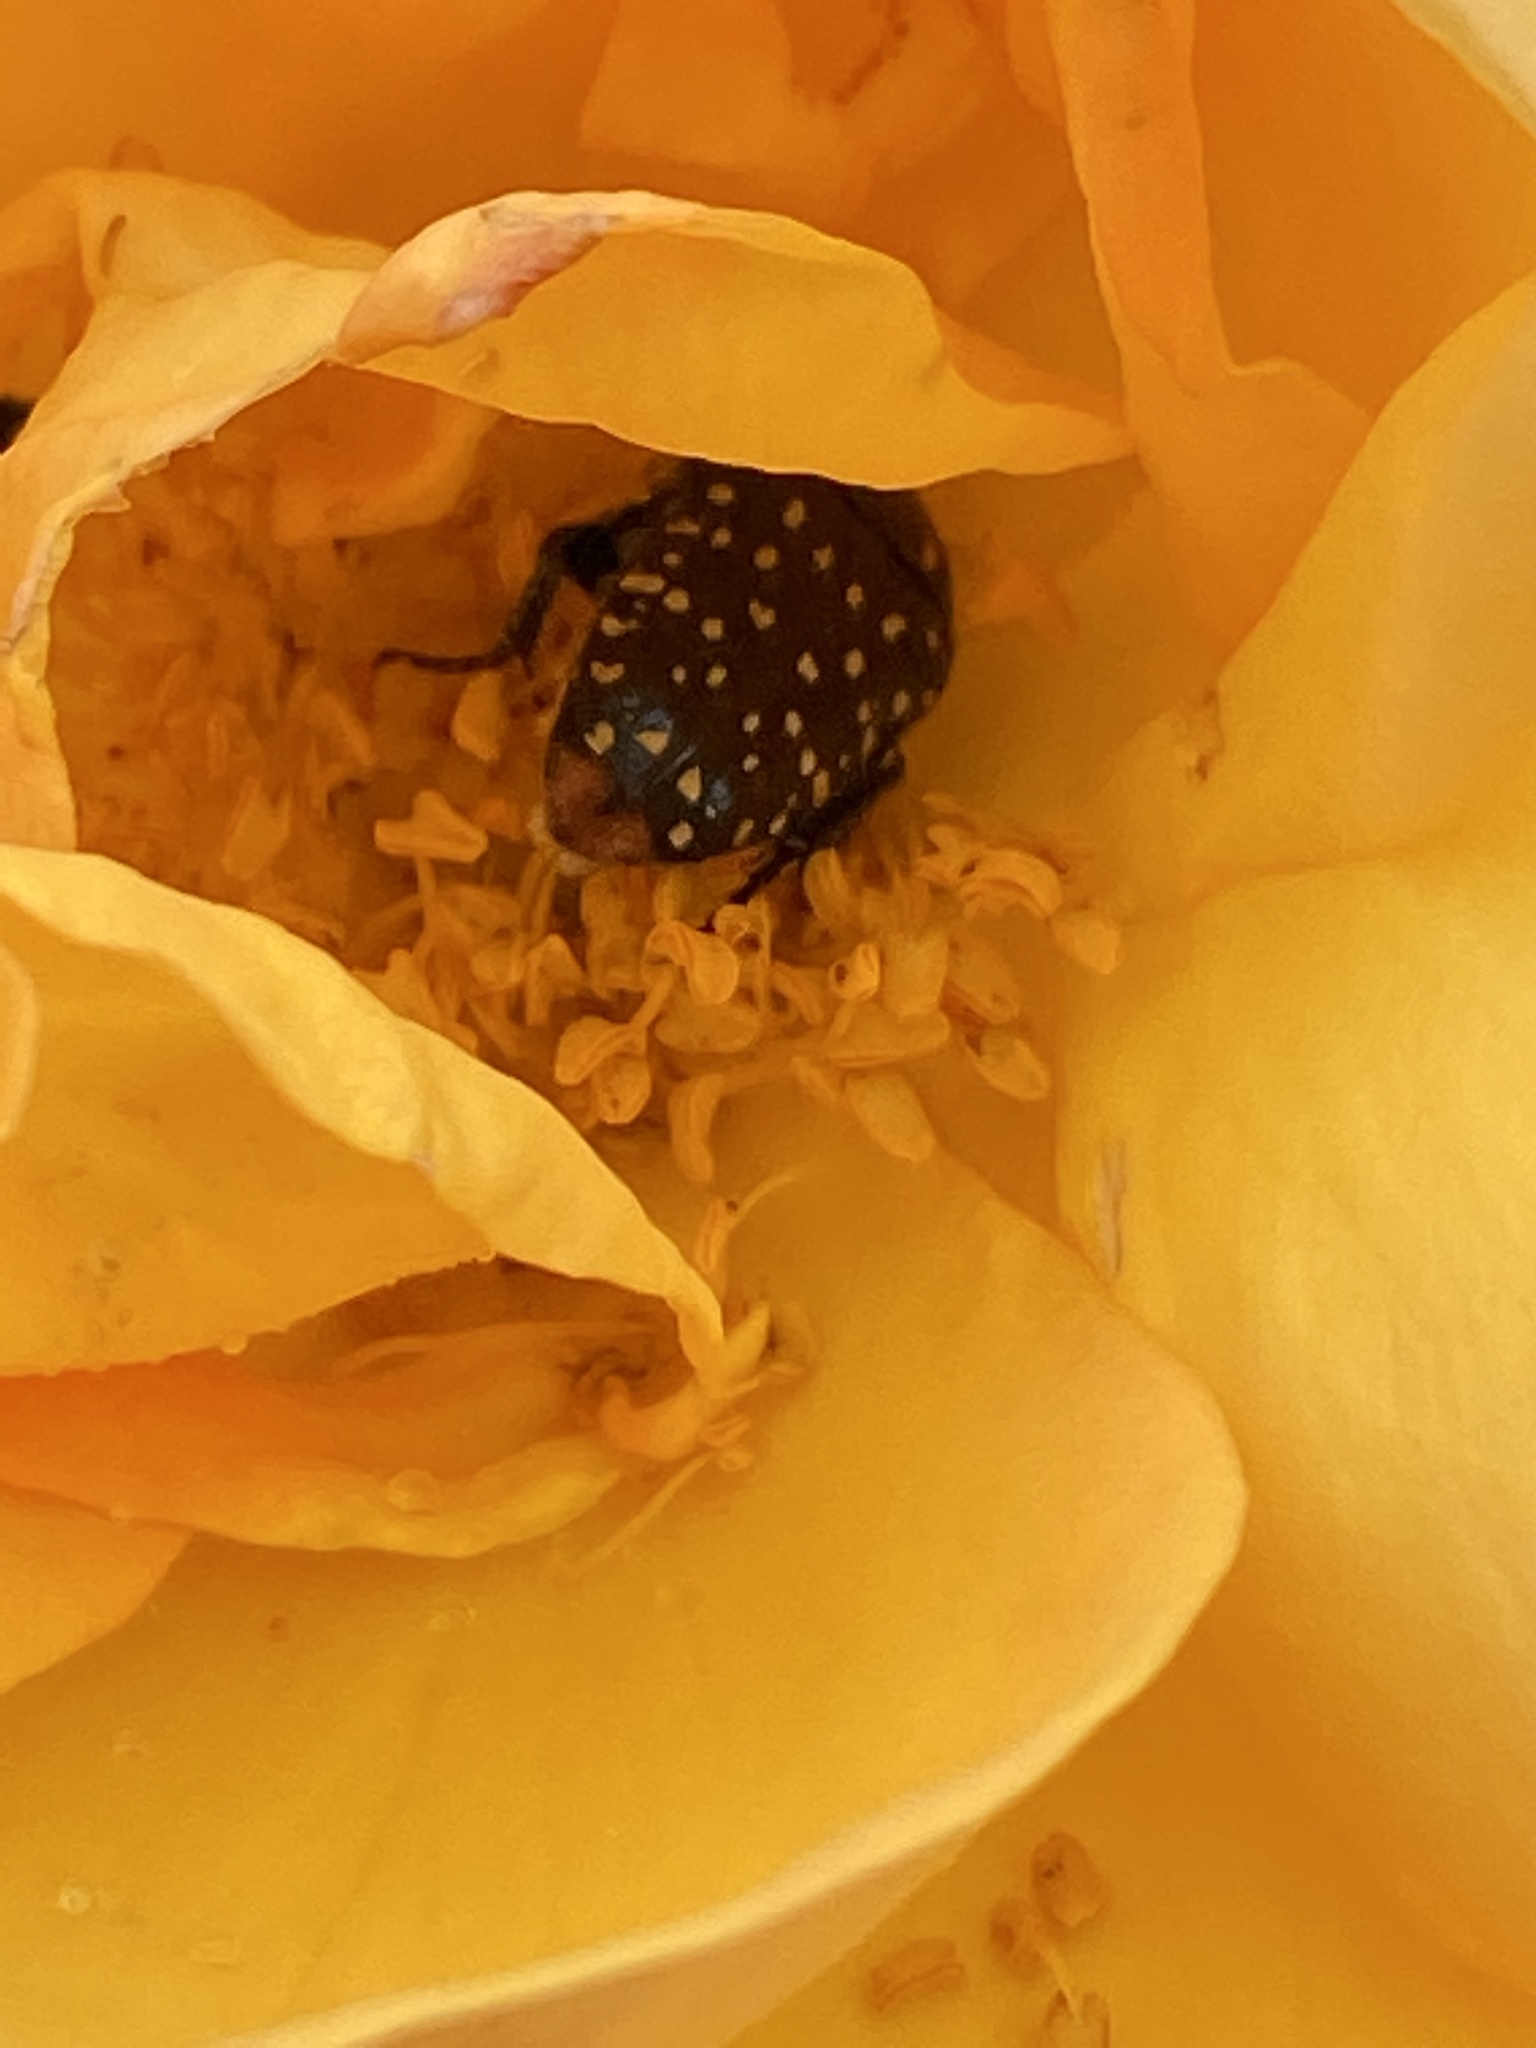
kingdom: Animalia
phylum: Arthropoda
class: Insecta
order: Coleoptera
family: Scarabaeidae
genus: Oxythyrea
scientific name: Oxythyrea
